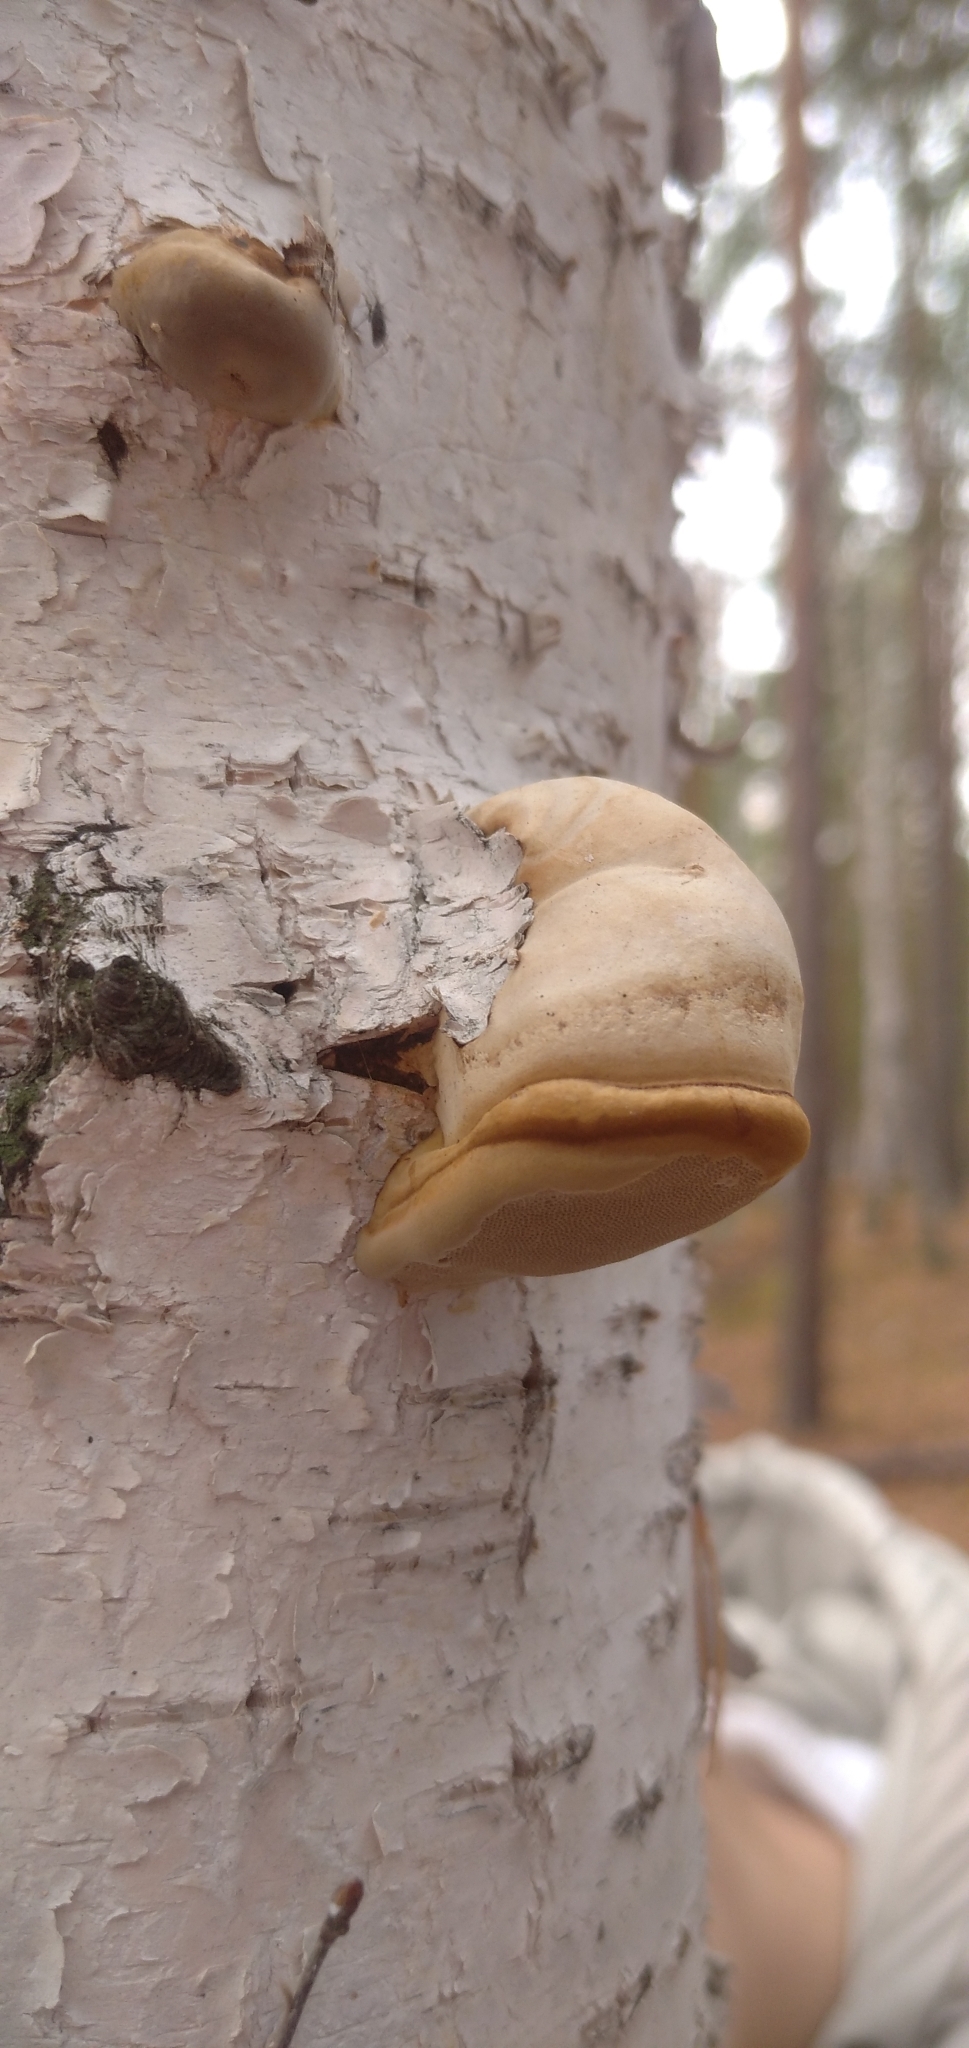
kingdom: Fungi
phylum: Basidiomycota
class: Agaricomycetes
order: Polyporales
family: Polyporaceae
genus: Fomes
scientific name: Fomes fomentarius
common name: Hoof fungus
